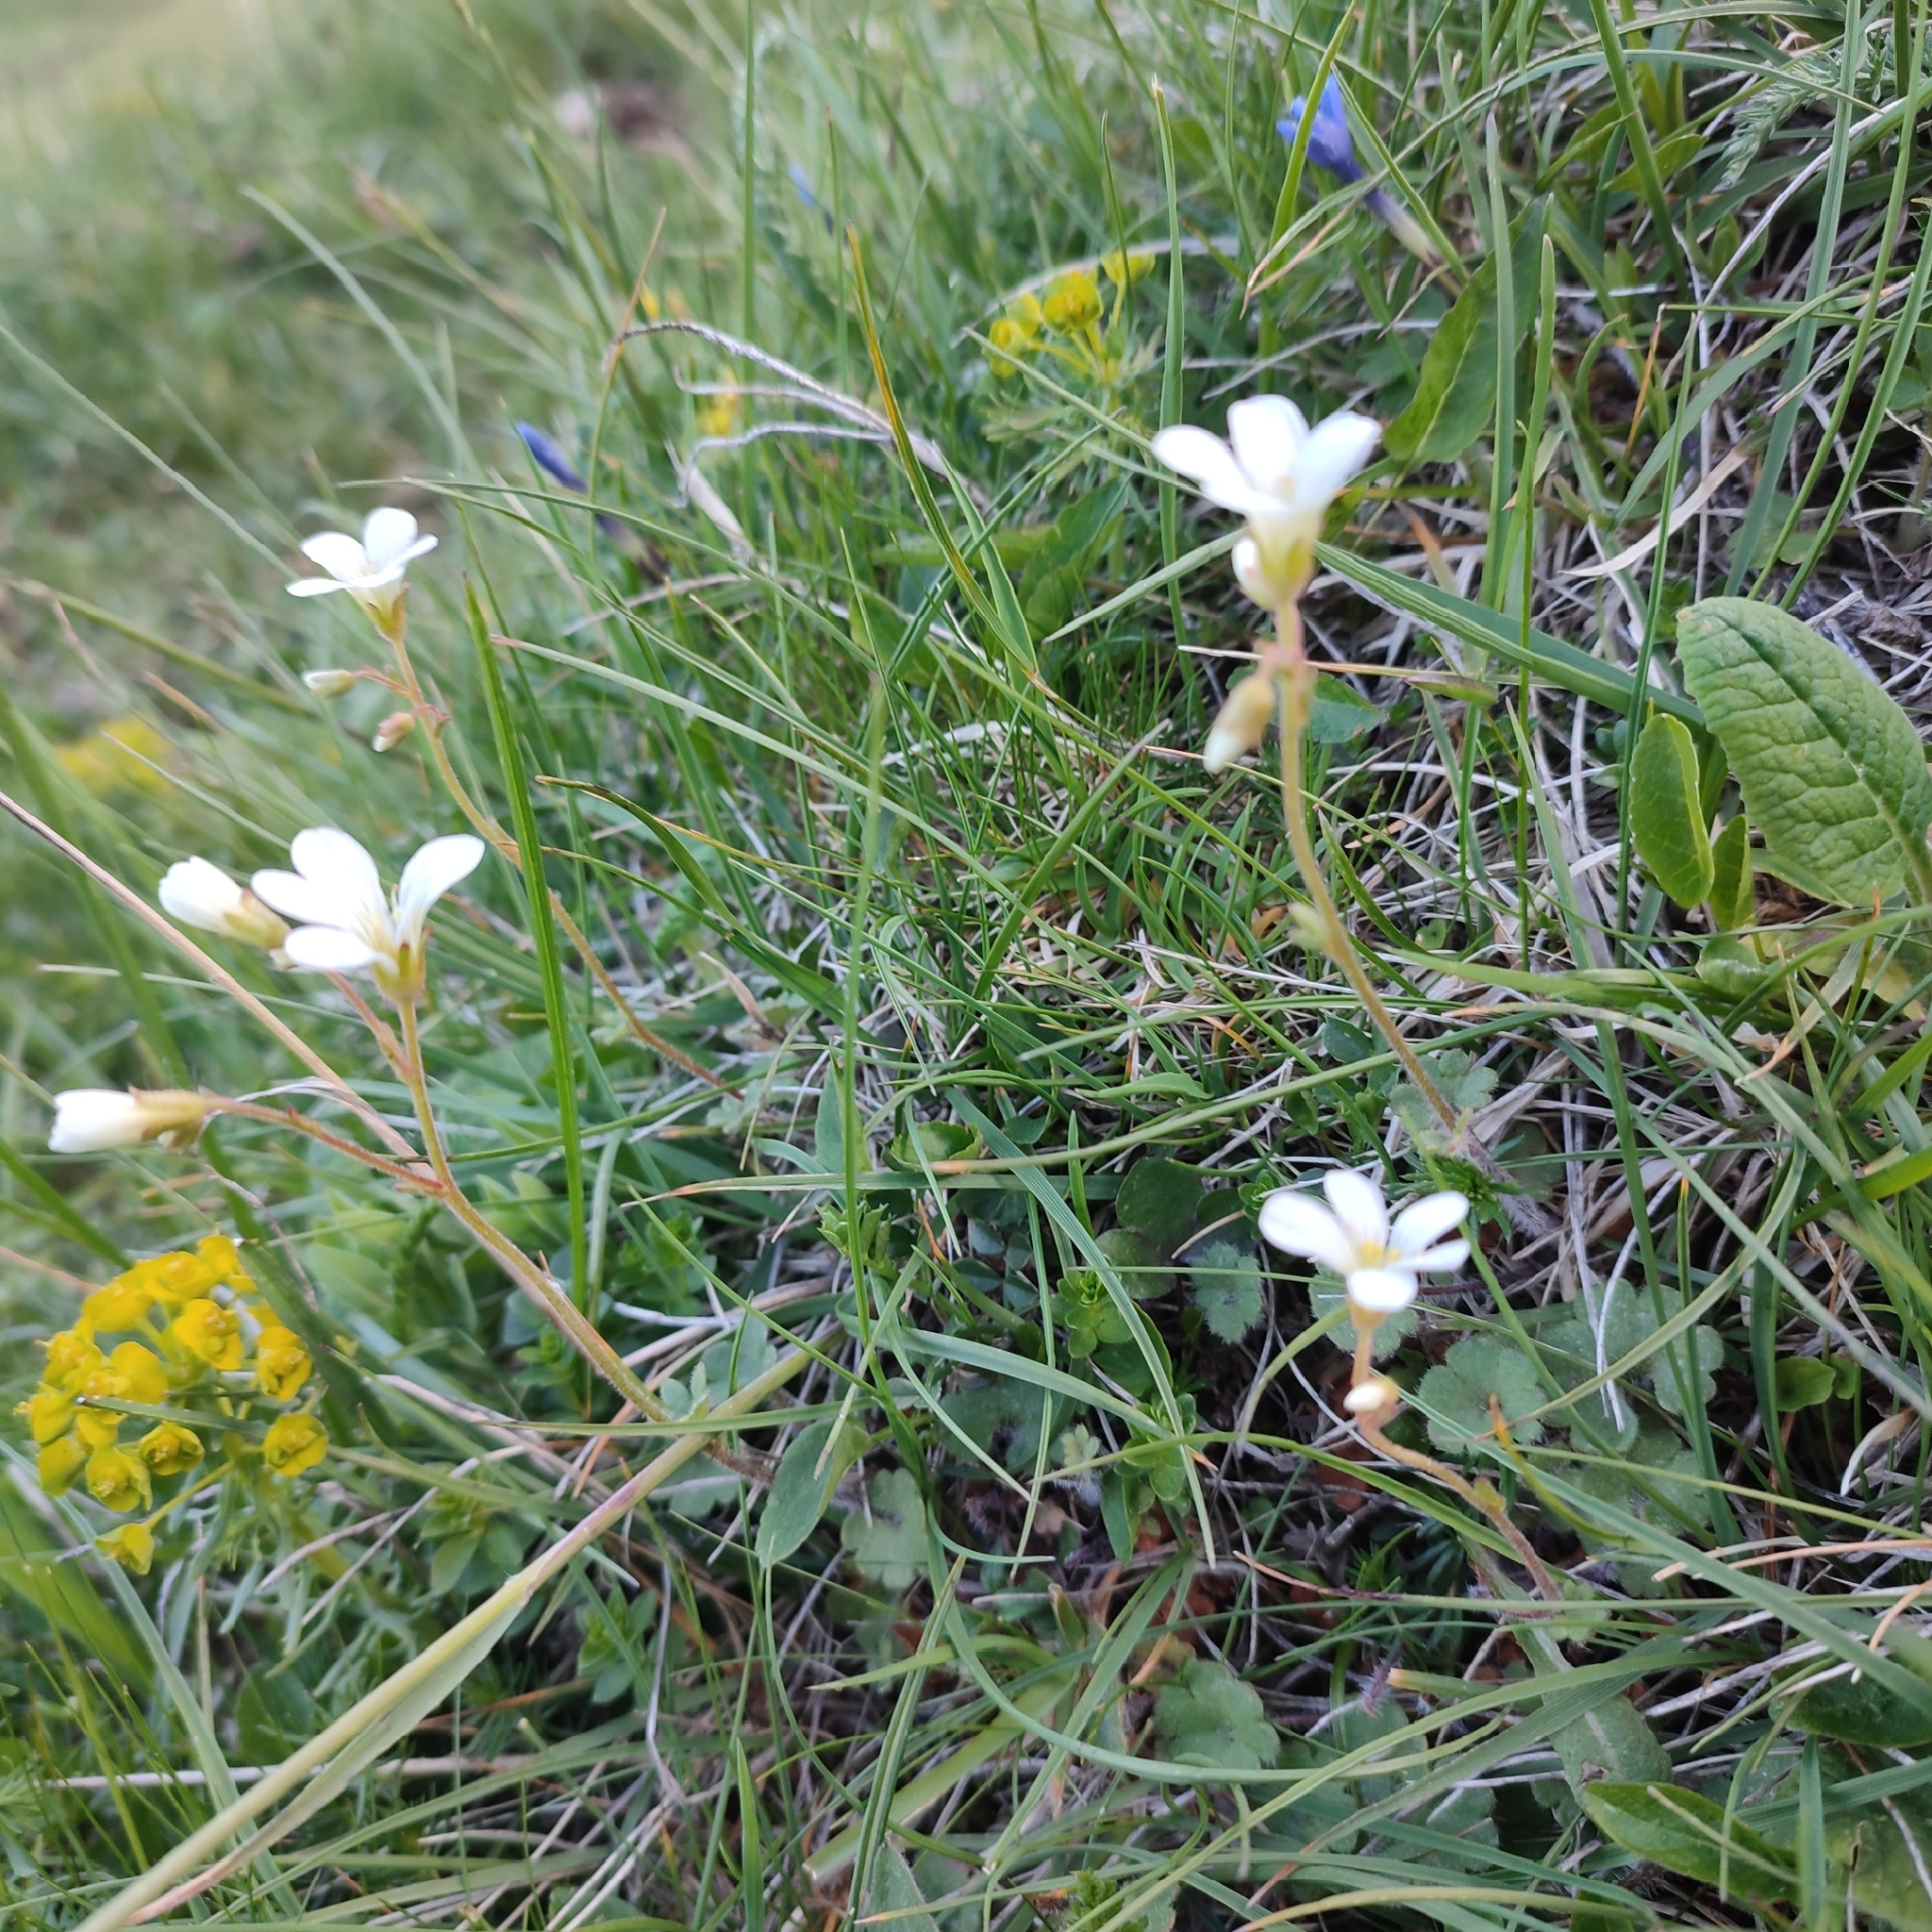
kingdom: Plantae
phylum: Tracheophyta
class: Magnoliopsida
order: Saxifragales
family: Saxifragaceae
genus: Saxifraga
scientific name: Saxifraga granulata
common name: Meadow saxifrage
